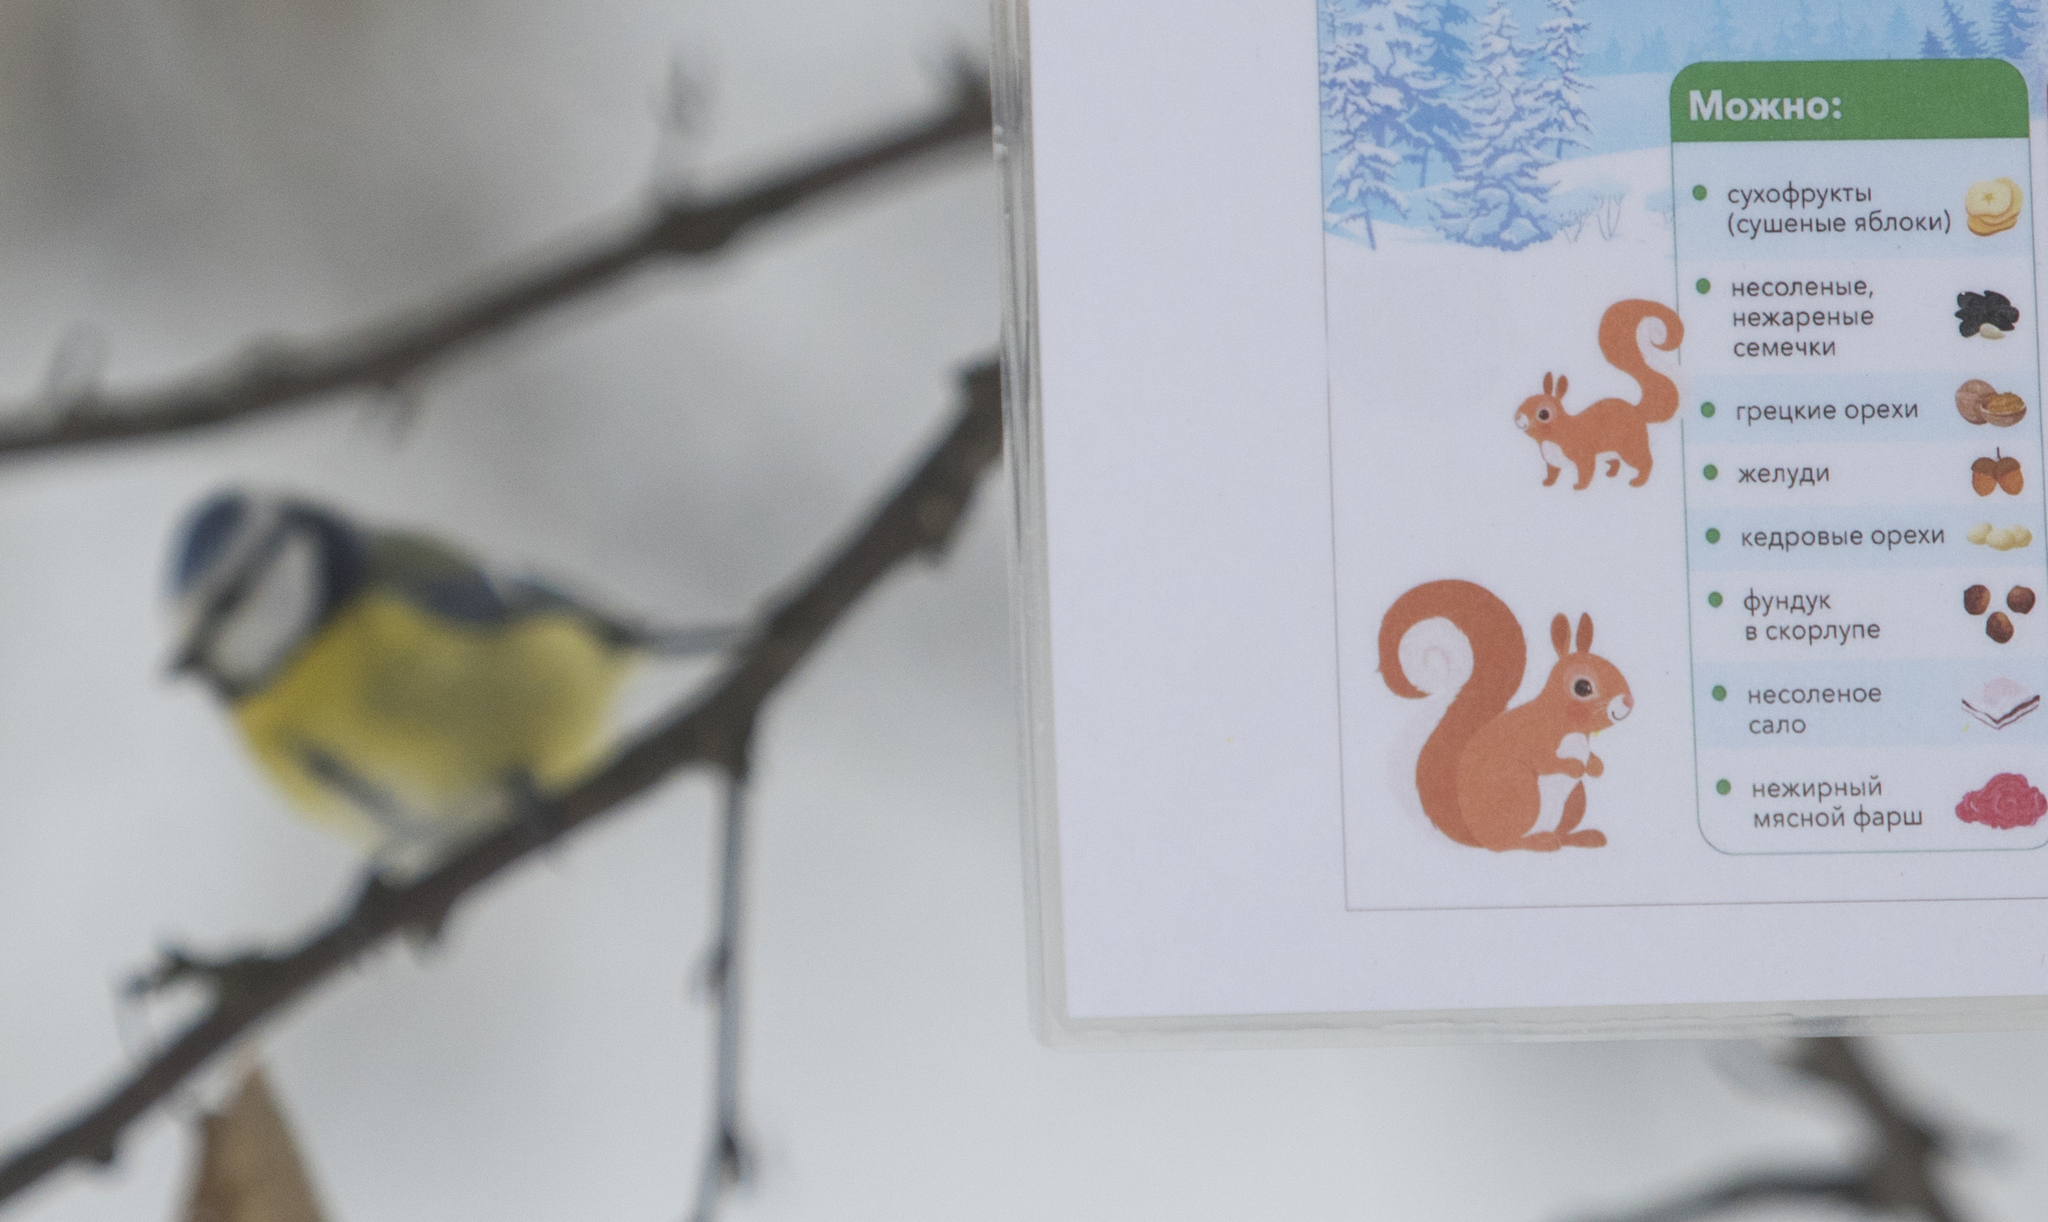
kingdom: Animalia
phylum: Chordata
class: Aves
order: Passeriformes
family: Paridae
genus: Cyanistes
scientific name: Cyanistes caeruleus
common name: Eurasian blue tit
